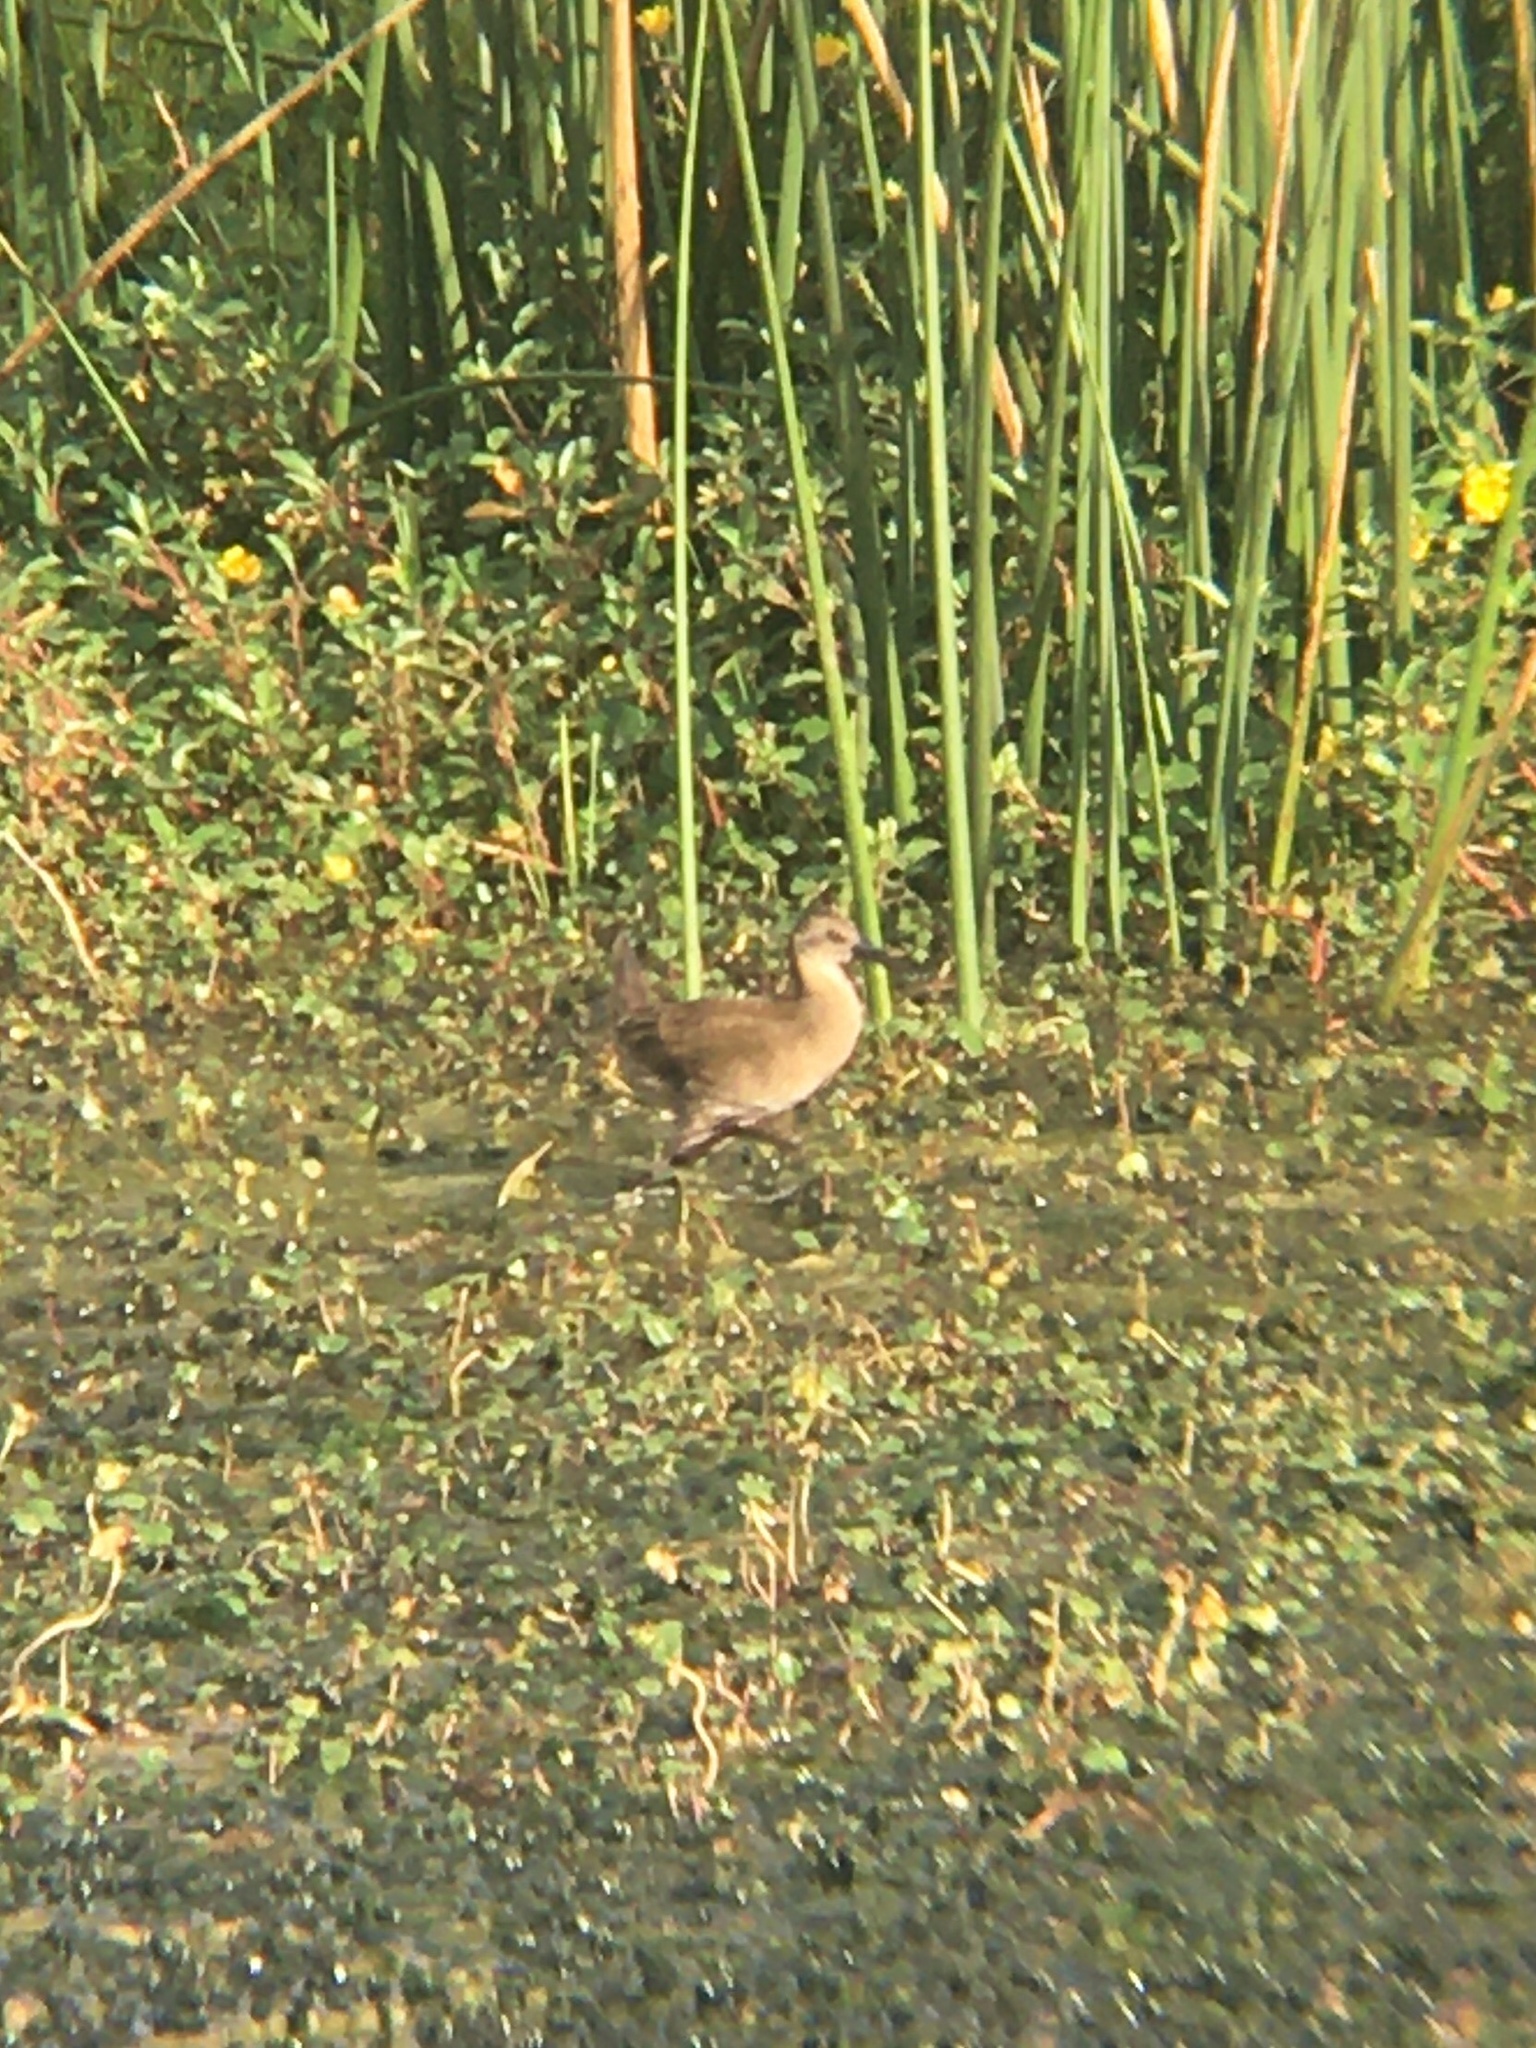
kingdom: Animalia
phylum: Chordata
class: Aves
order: Gruiformes
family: Rallidae
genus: Pardirallus
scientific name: Pardirallus sanguinolentus
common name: Plumbeous rail
